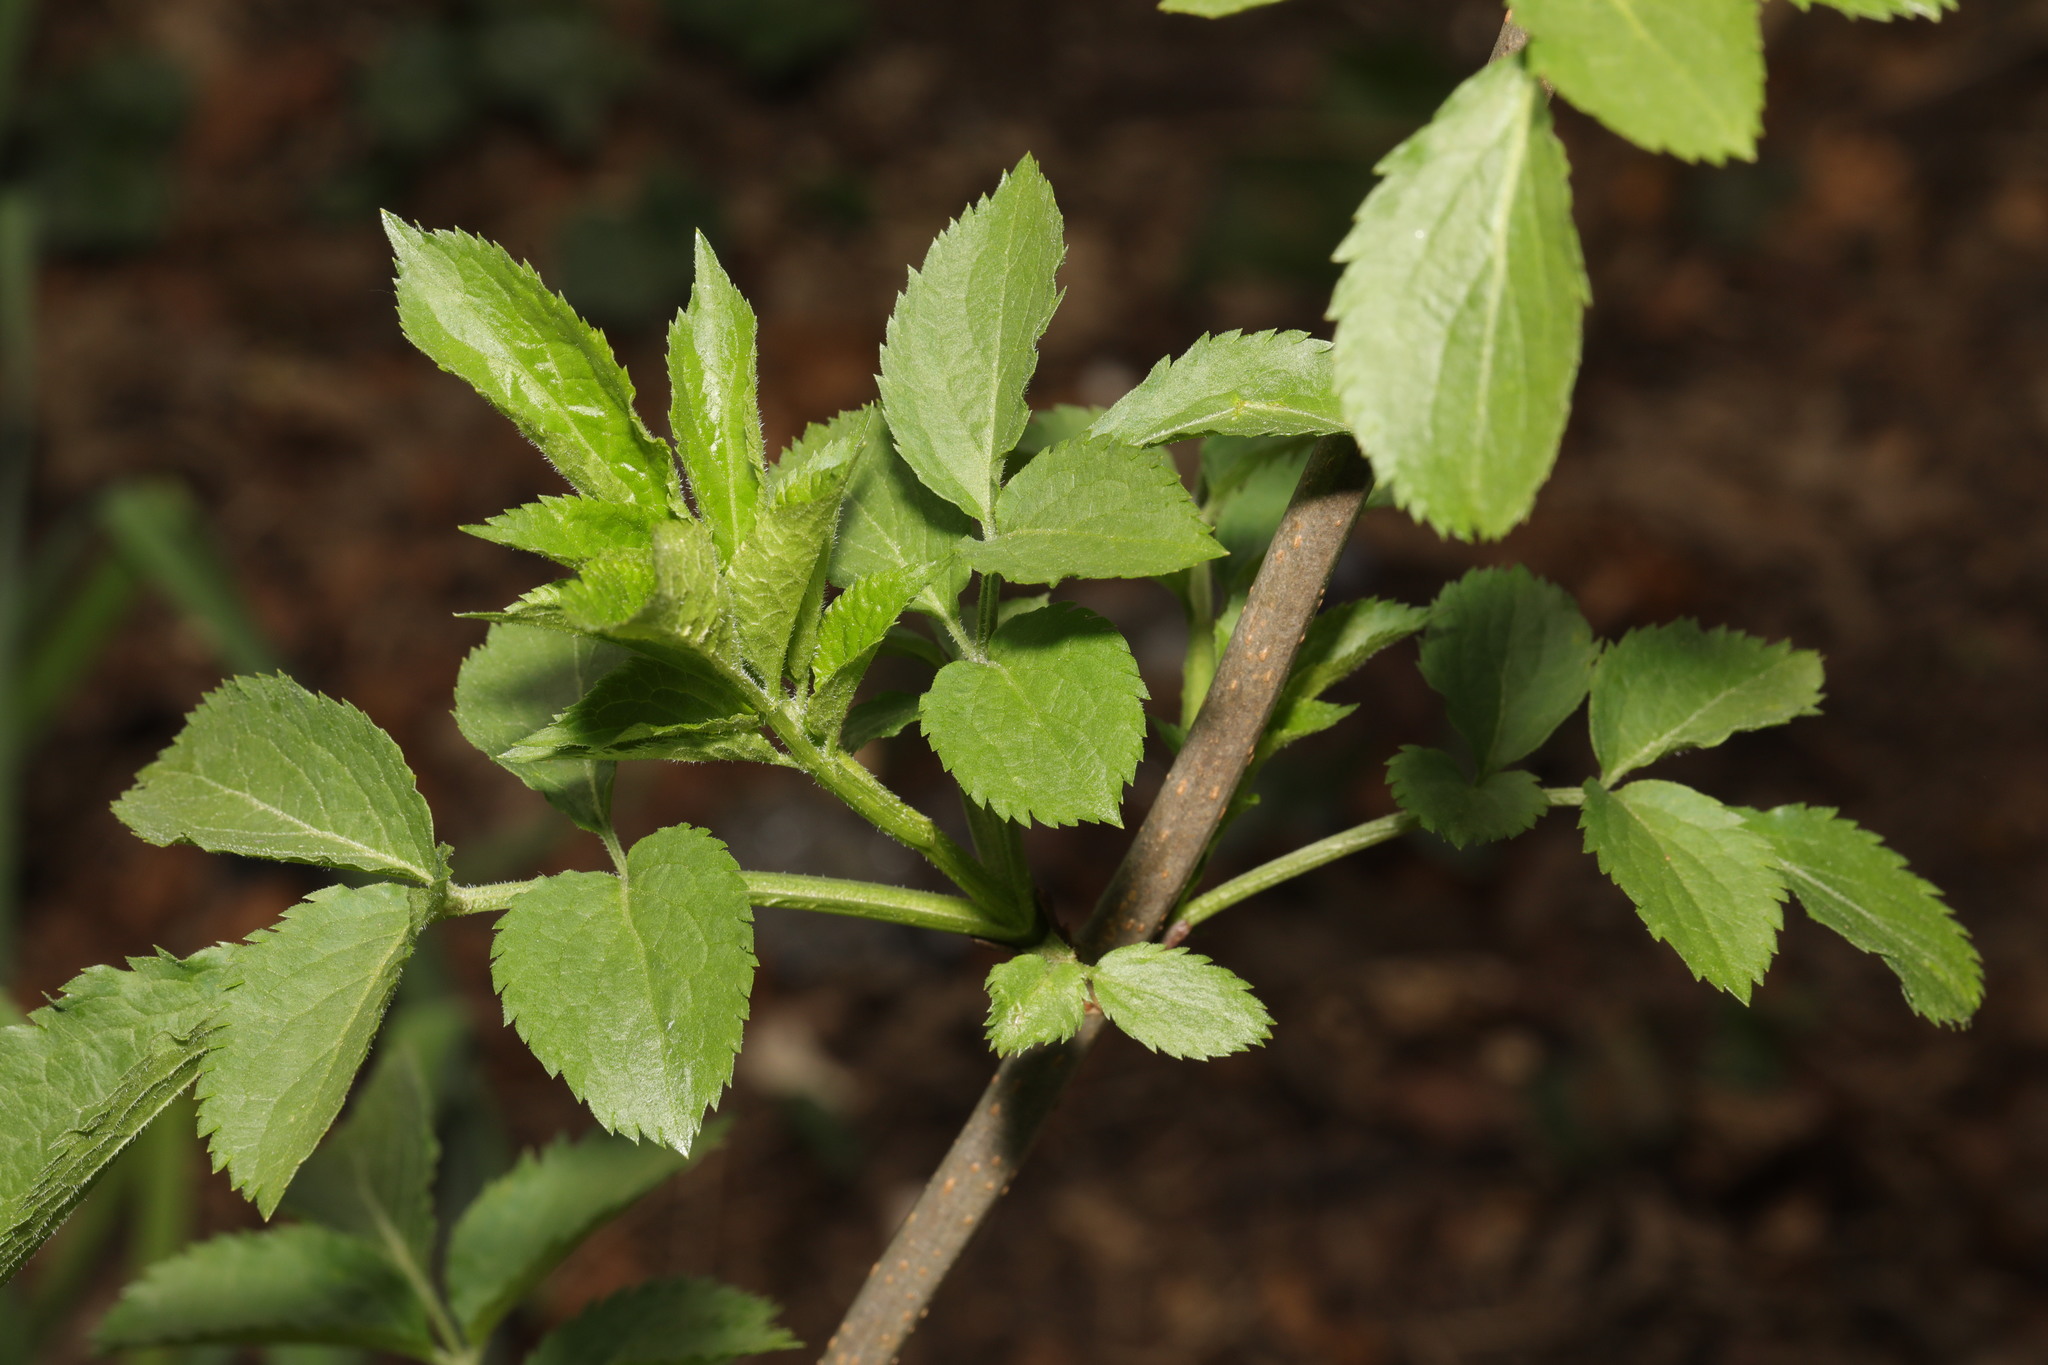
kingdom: Plantae
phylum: Tracheophyta
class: Magnoliopsida
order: Dipsacales
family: Viburnaceae
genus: Sambucus
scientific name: Sambucus nigra
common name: Elder
